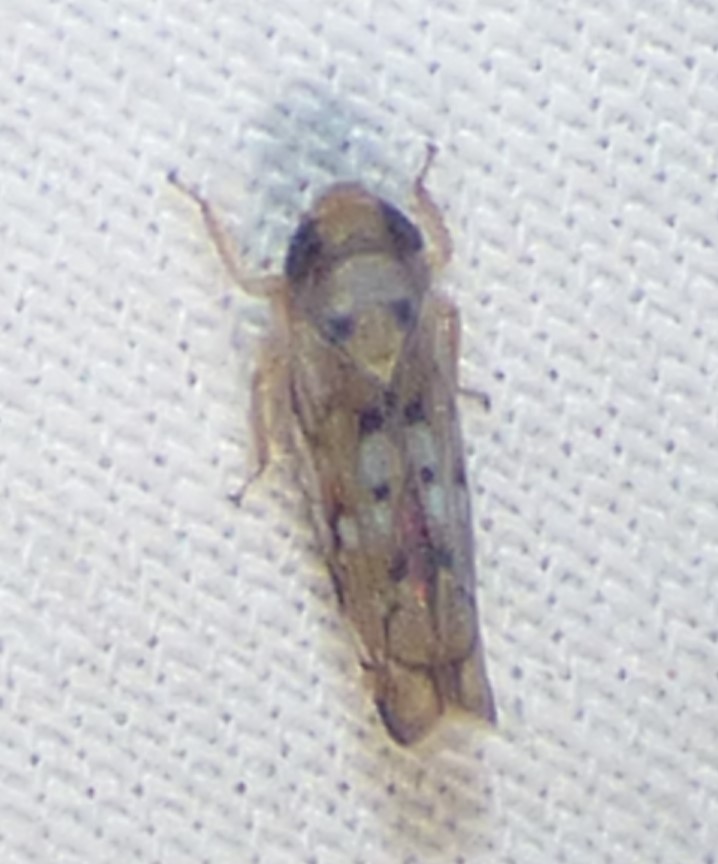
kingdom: Animalia
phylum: Arthropoda
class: Insecta
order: Hemiptera
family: Cicadellidae
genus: Scaphoideus
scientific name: Scaphoideus opalinus
